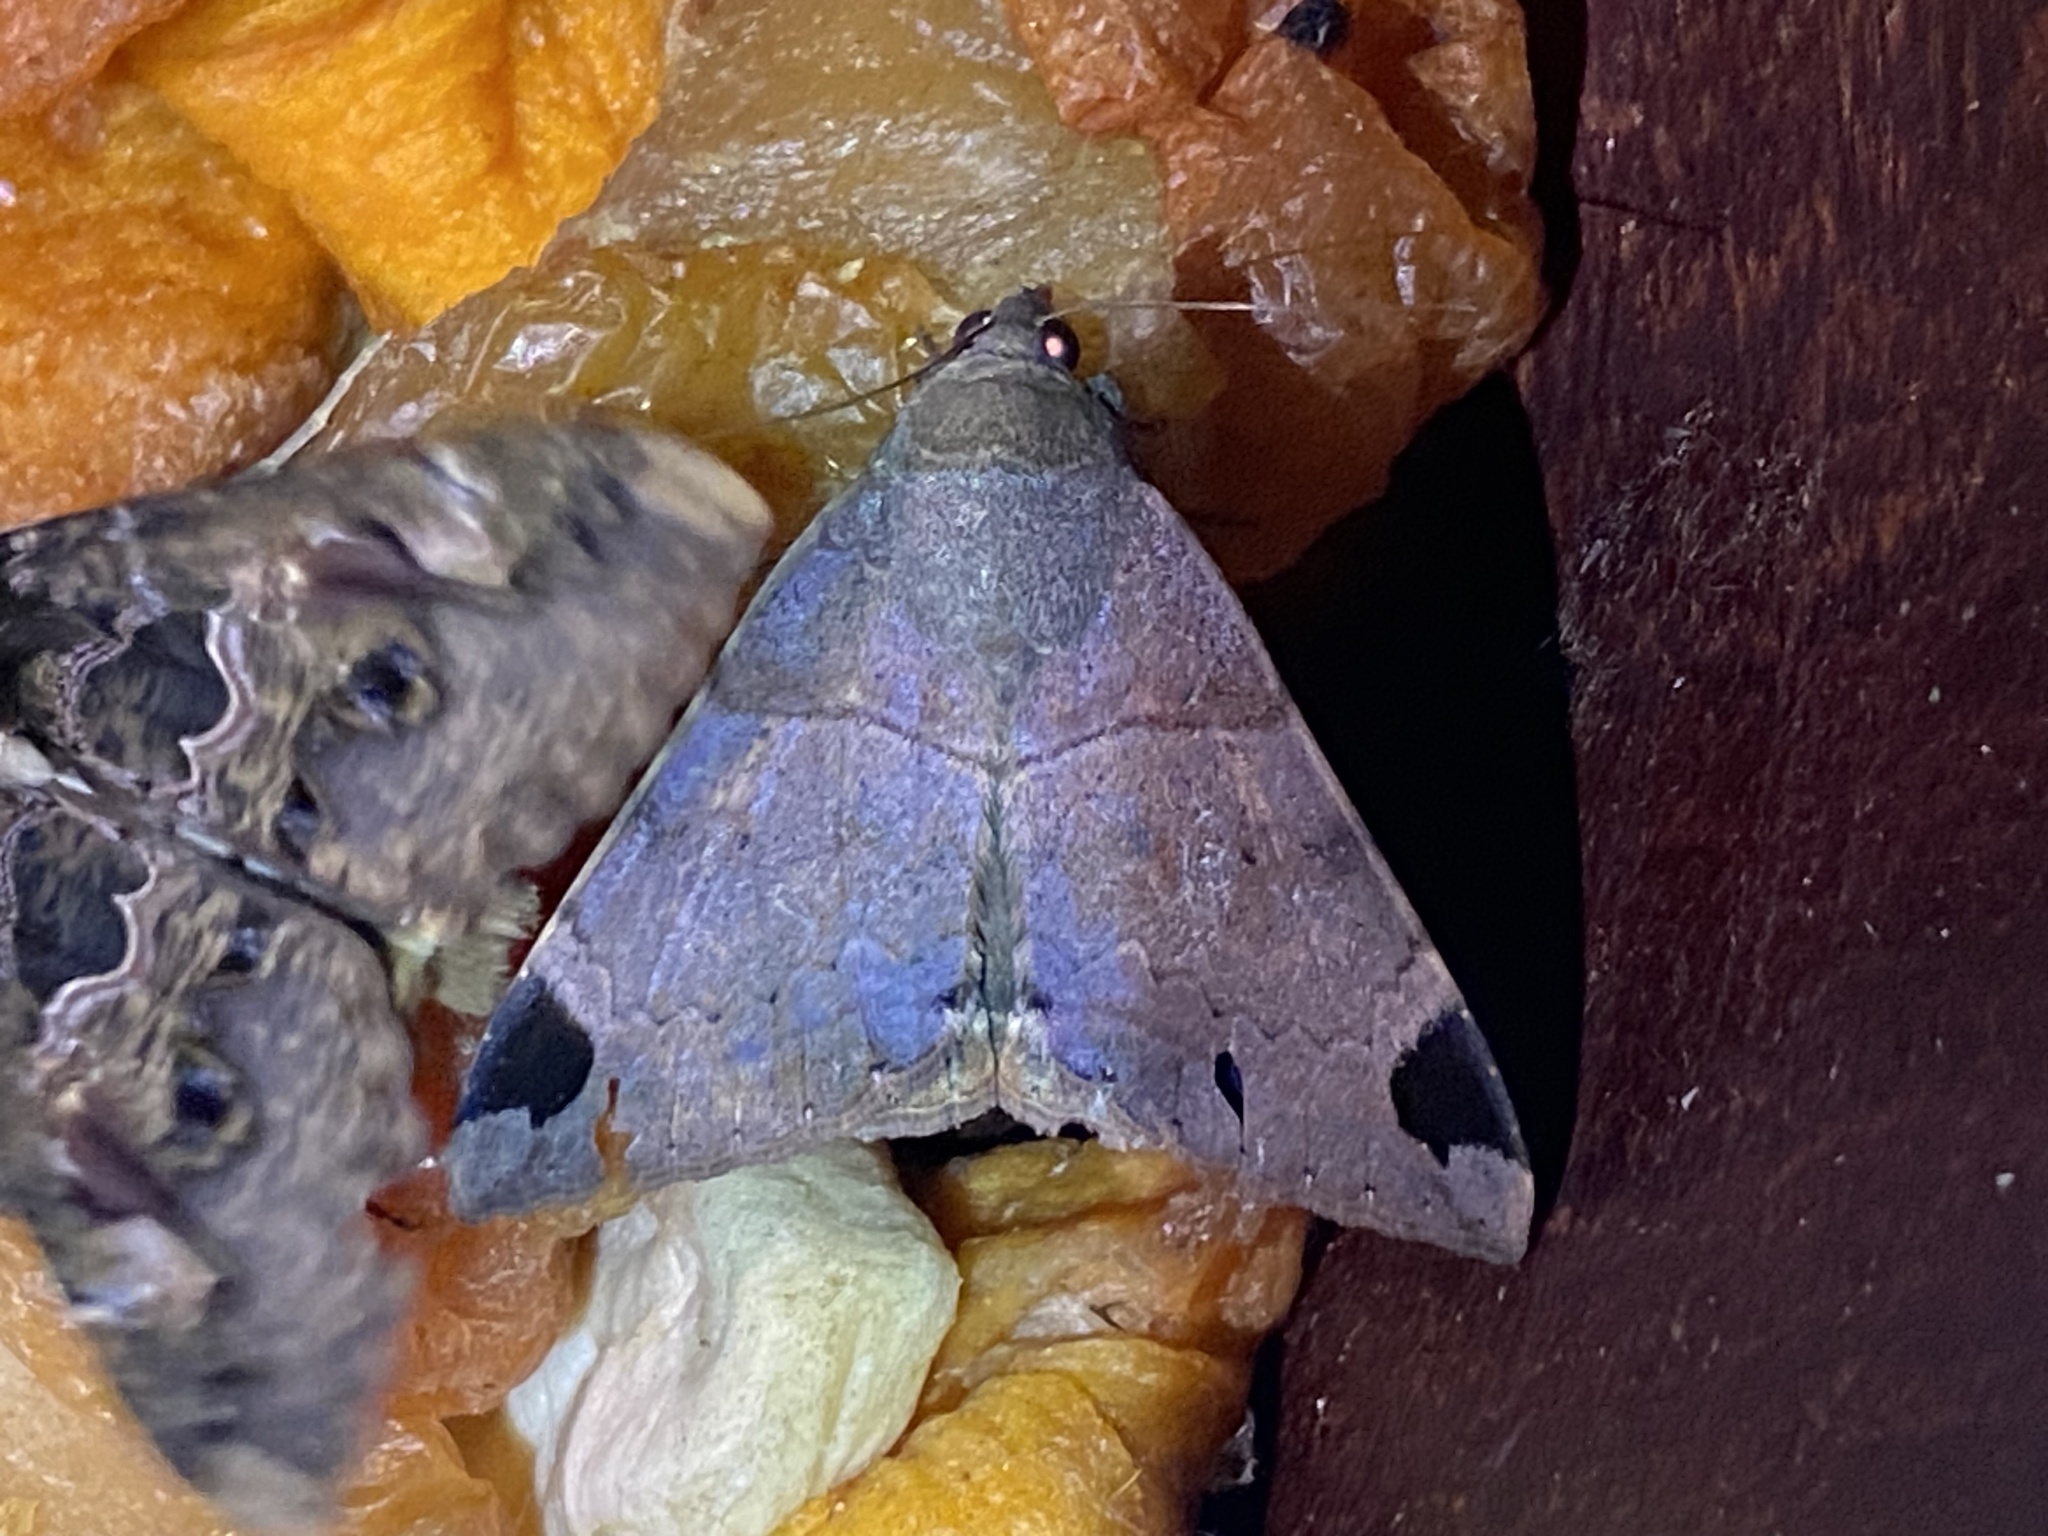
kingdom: Animalia
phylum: Arthropoda
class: Insecta
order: Lepidoptera
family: Erebidae
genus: Achaea
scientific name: Achaea lienardi
